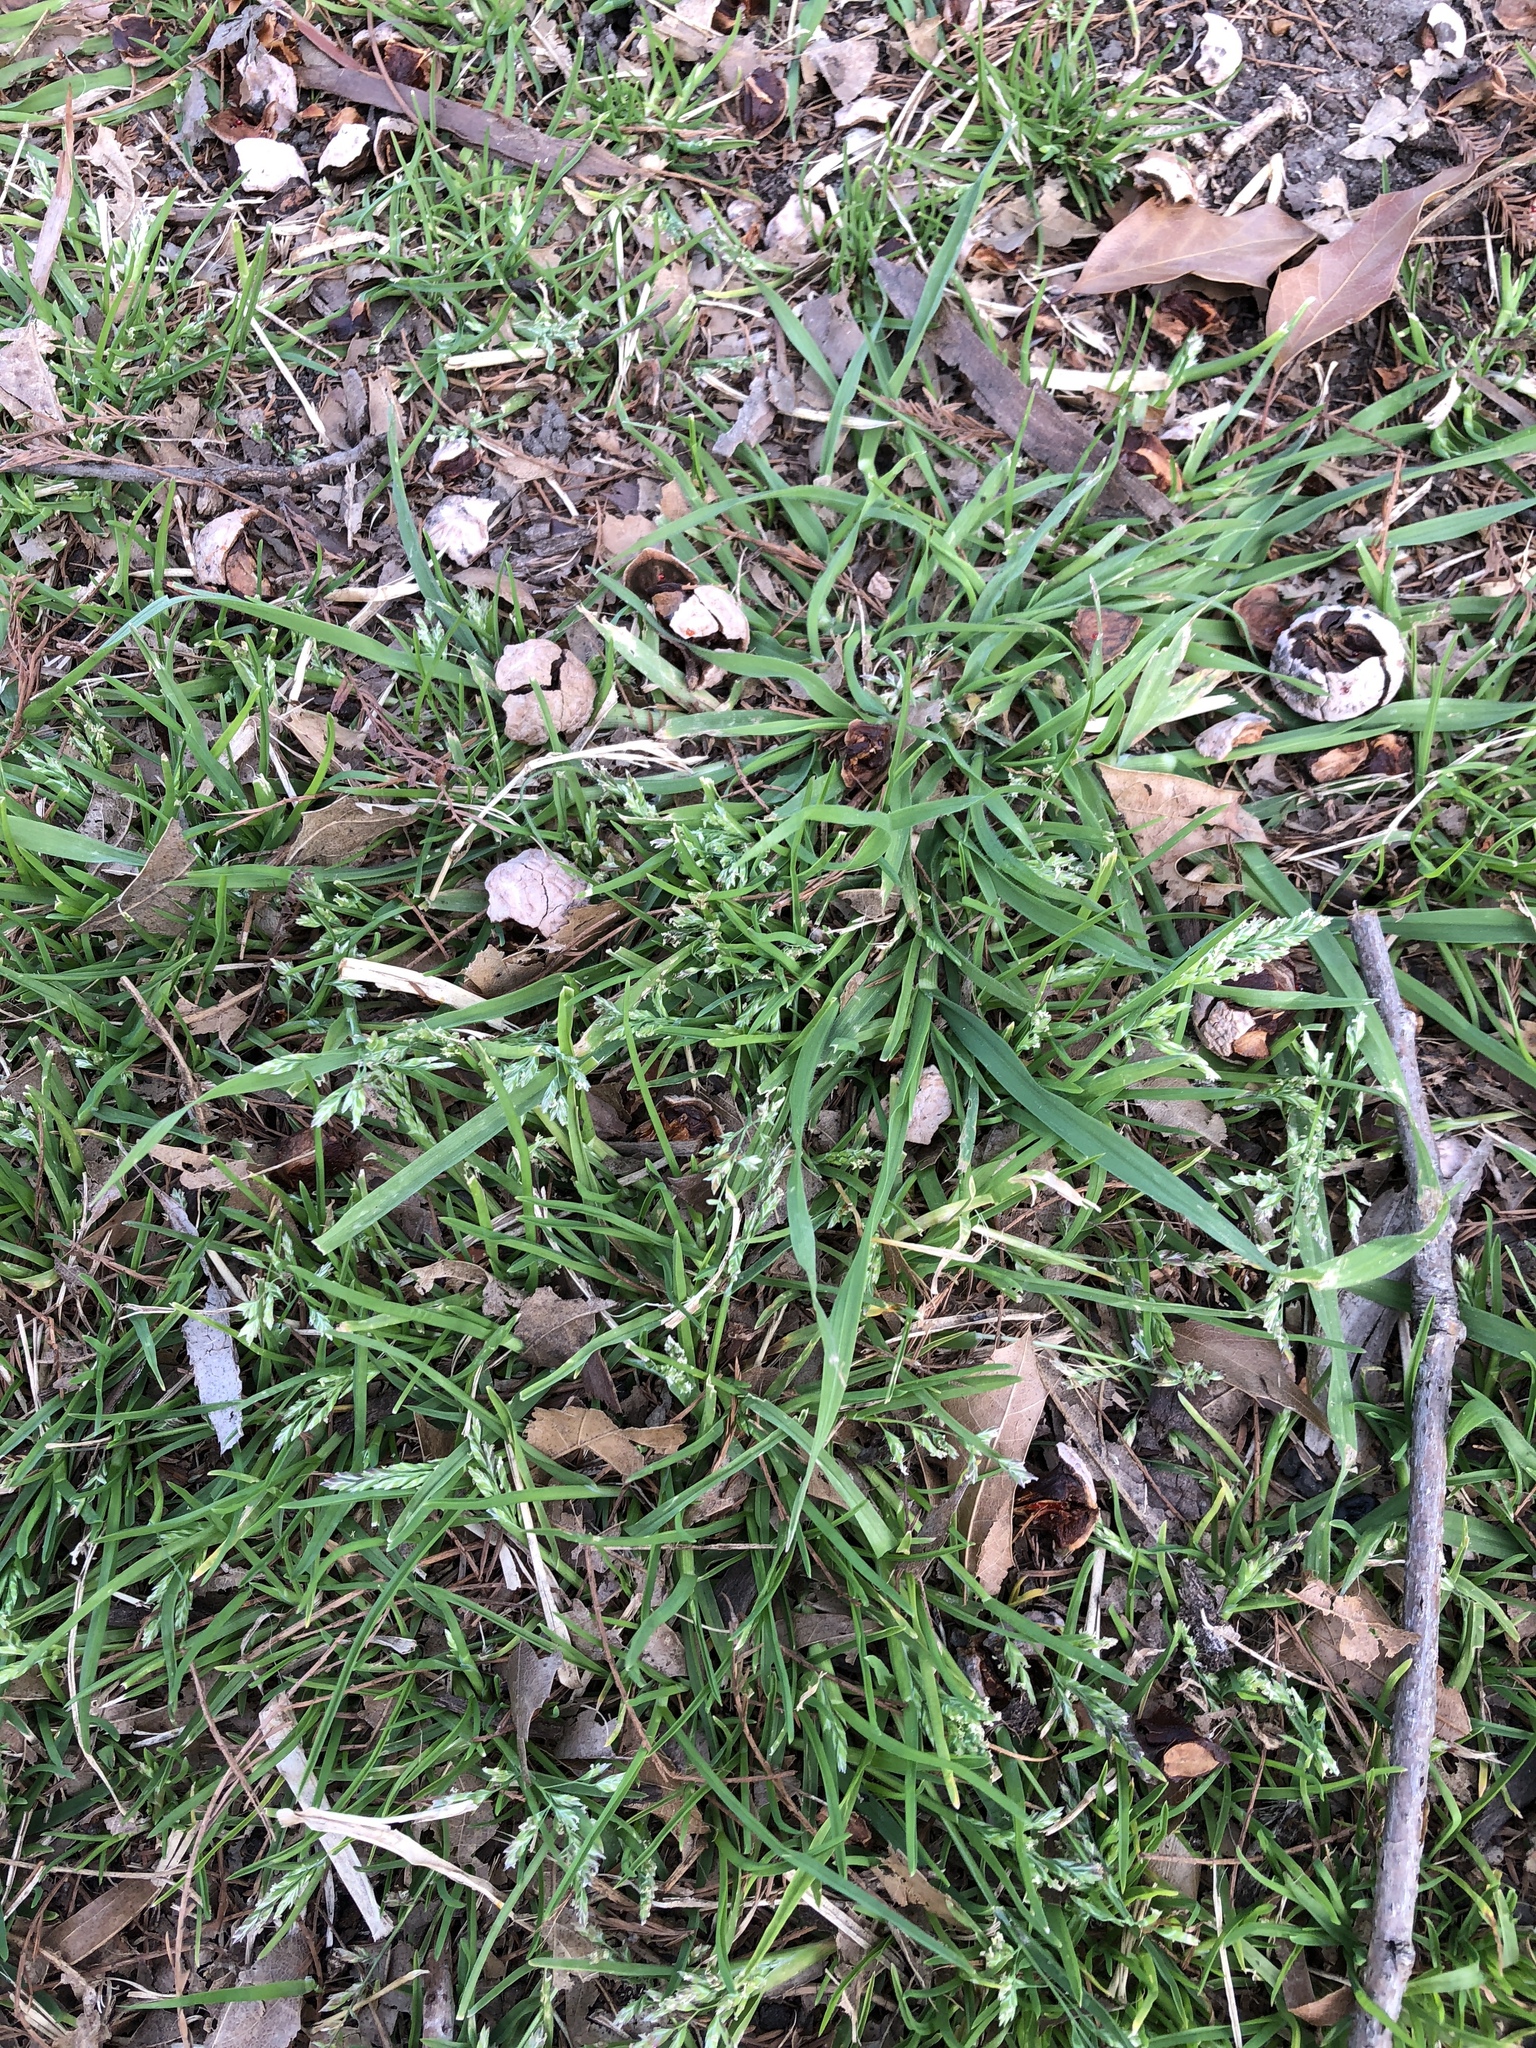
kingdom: Plantae
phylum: Tracheophyta
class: Liliopsida
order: Poales
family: Poaceae
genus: Poa
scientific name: Poa annua
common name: Annual bluegrass
